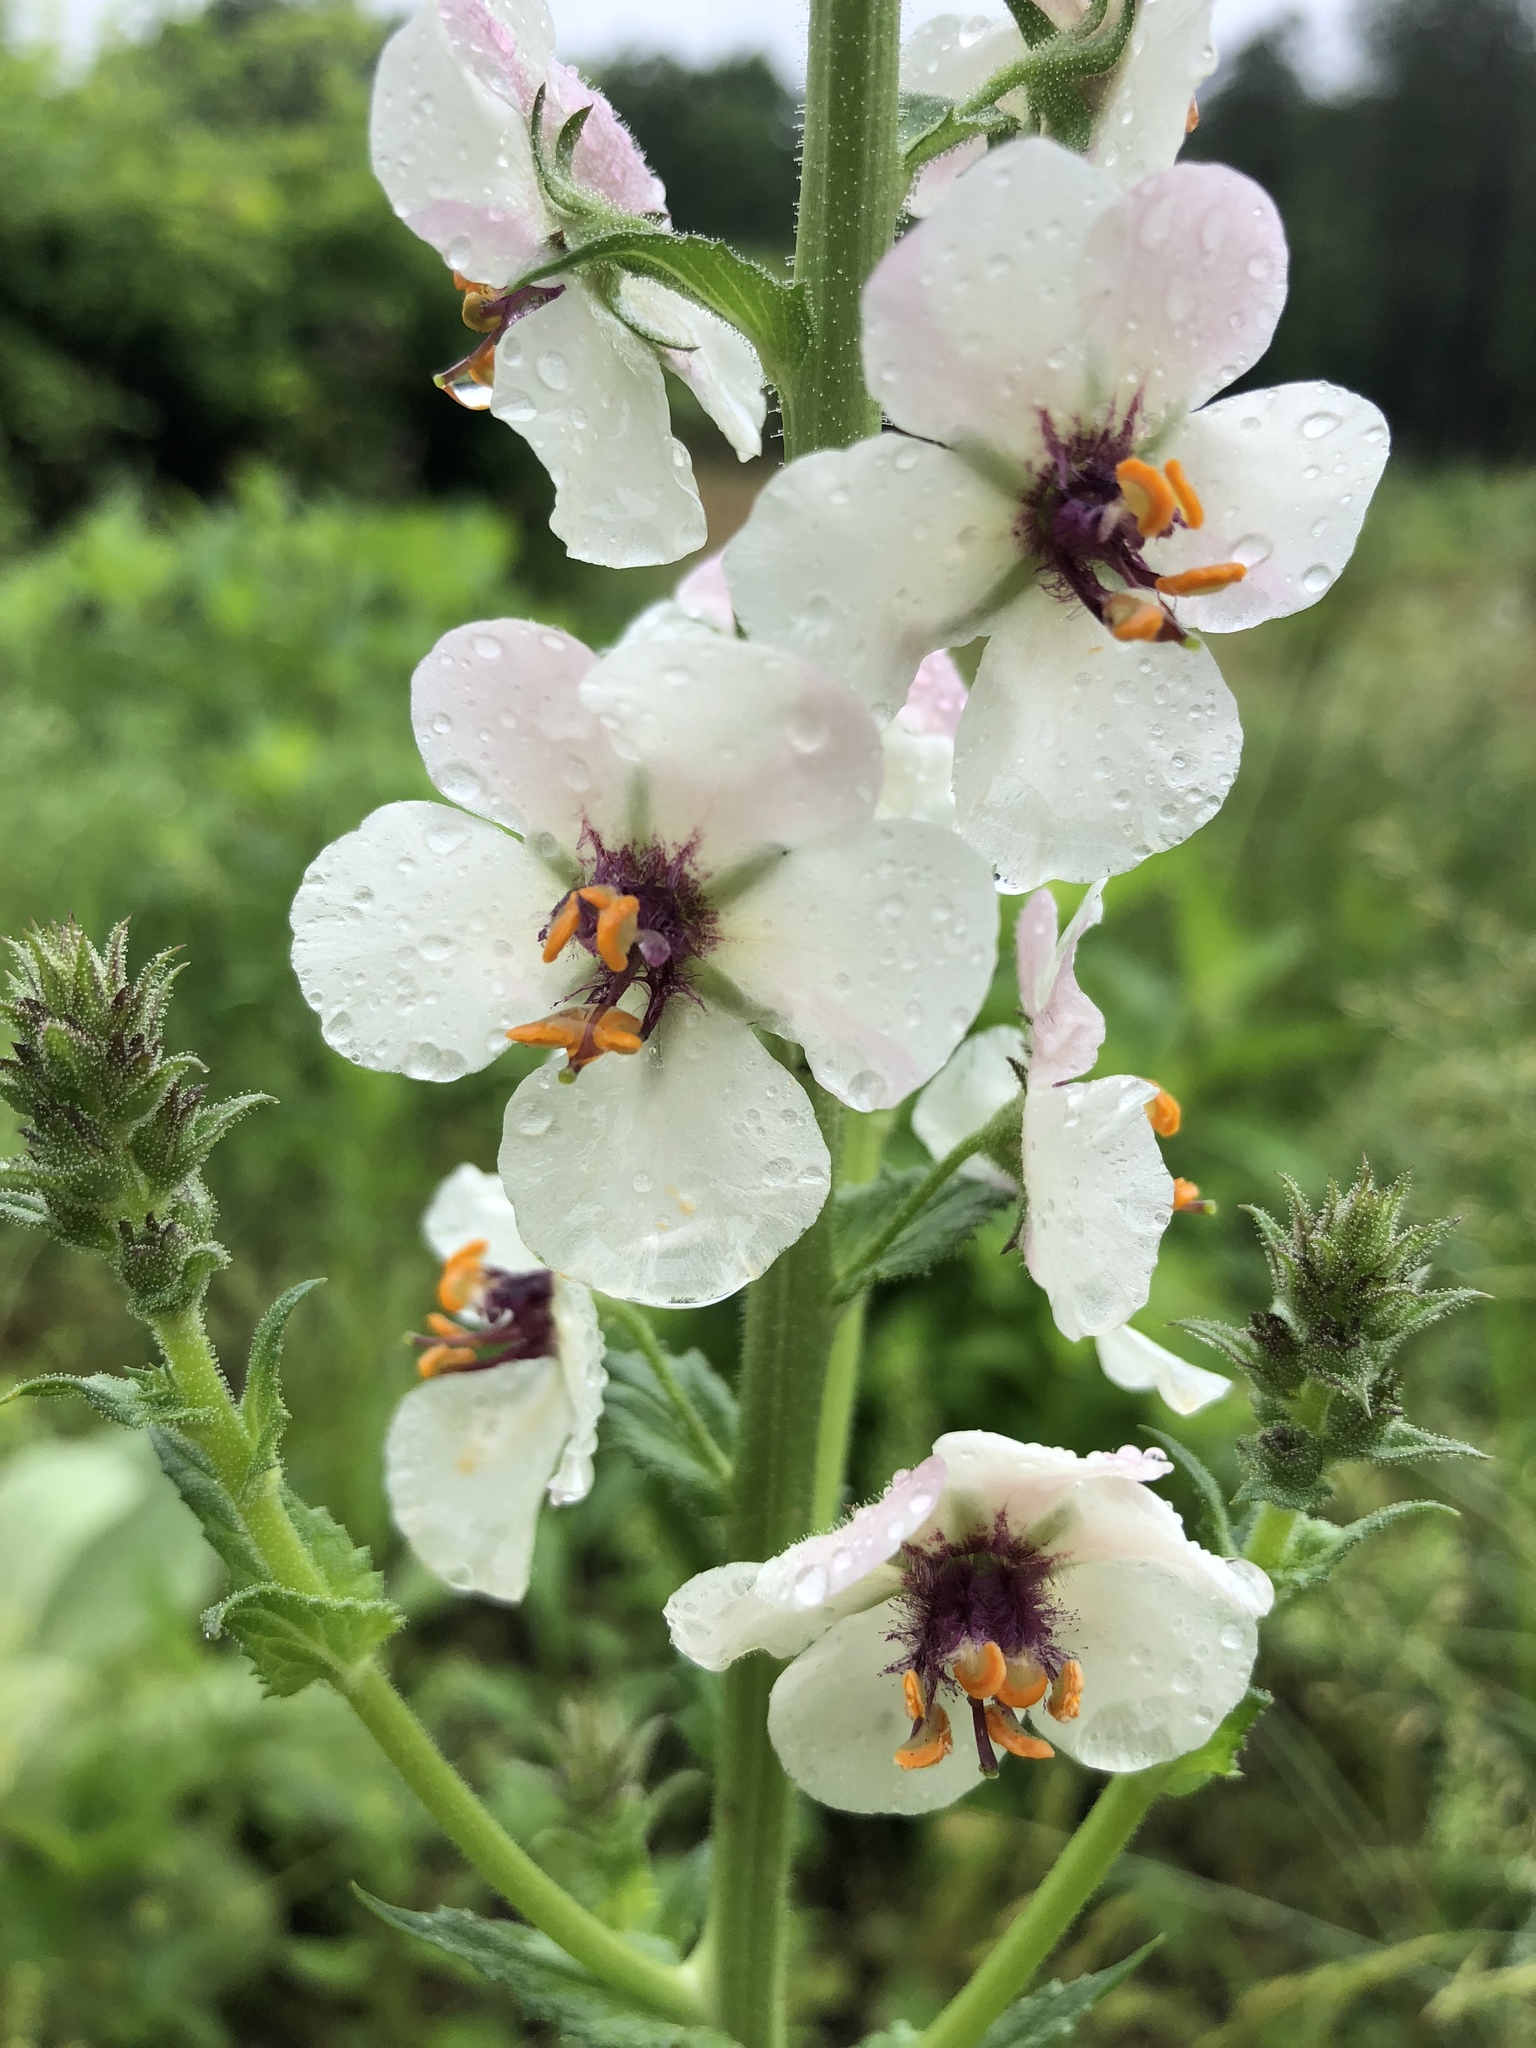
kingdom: Plantae
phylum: Tracheophyta
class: Magnoliopsida
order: Lamiales
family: Scrophulariaceae
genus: Verbascum
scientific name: Verbascum blattaria
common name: Moth mullein
